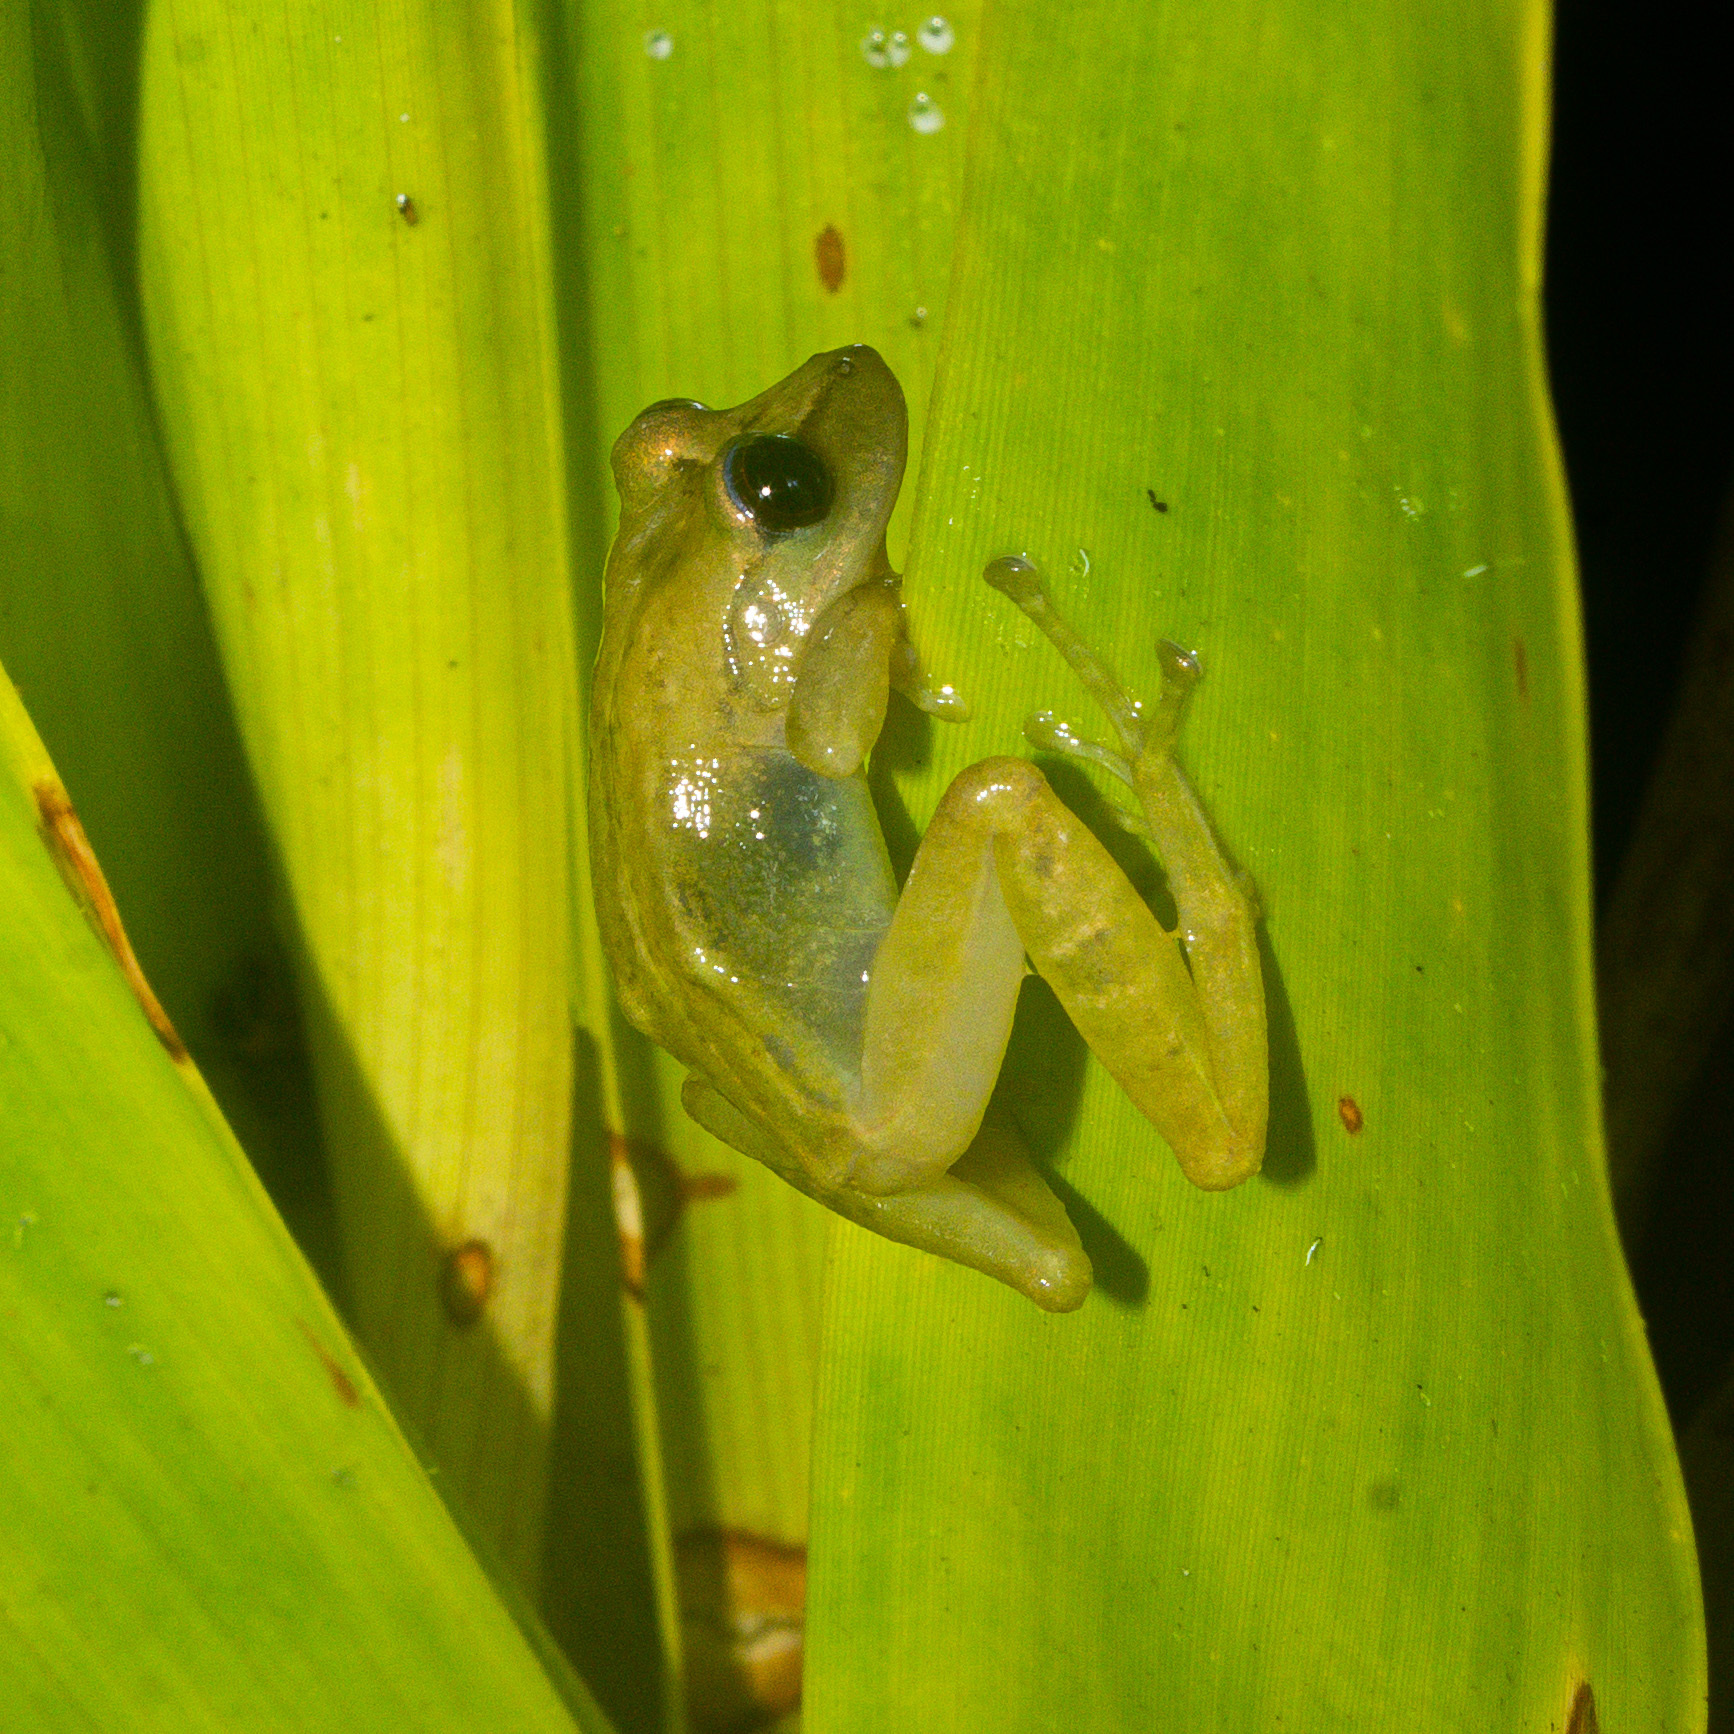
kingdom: Animalia
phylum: Chordata
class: Amphibia
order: Anura
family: Craugastoridae
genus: Tachiramantis
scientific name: Tachiramantis
